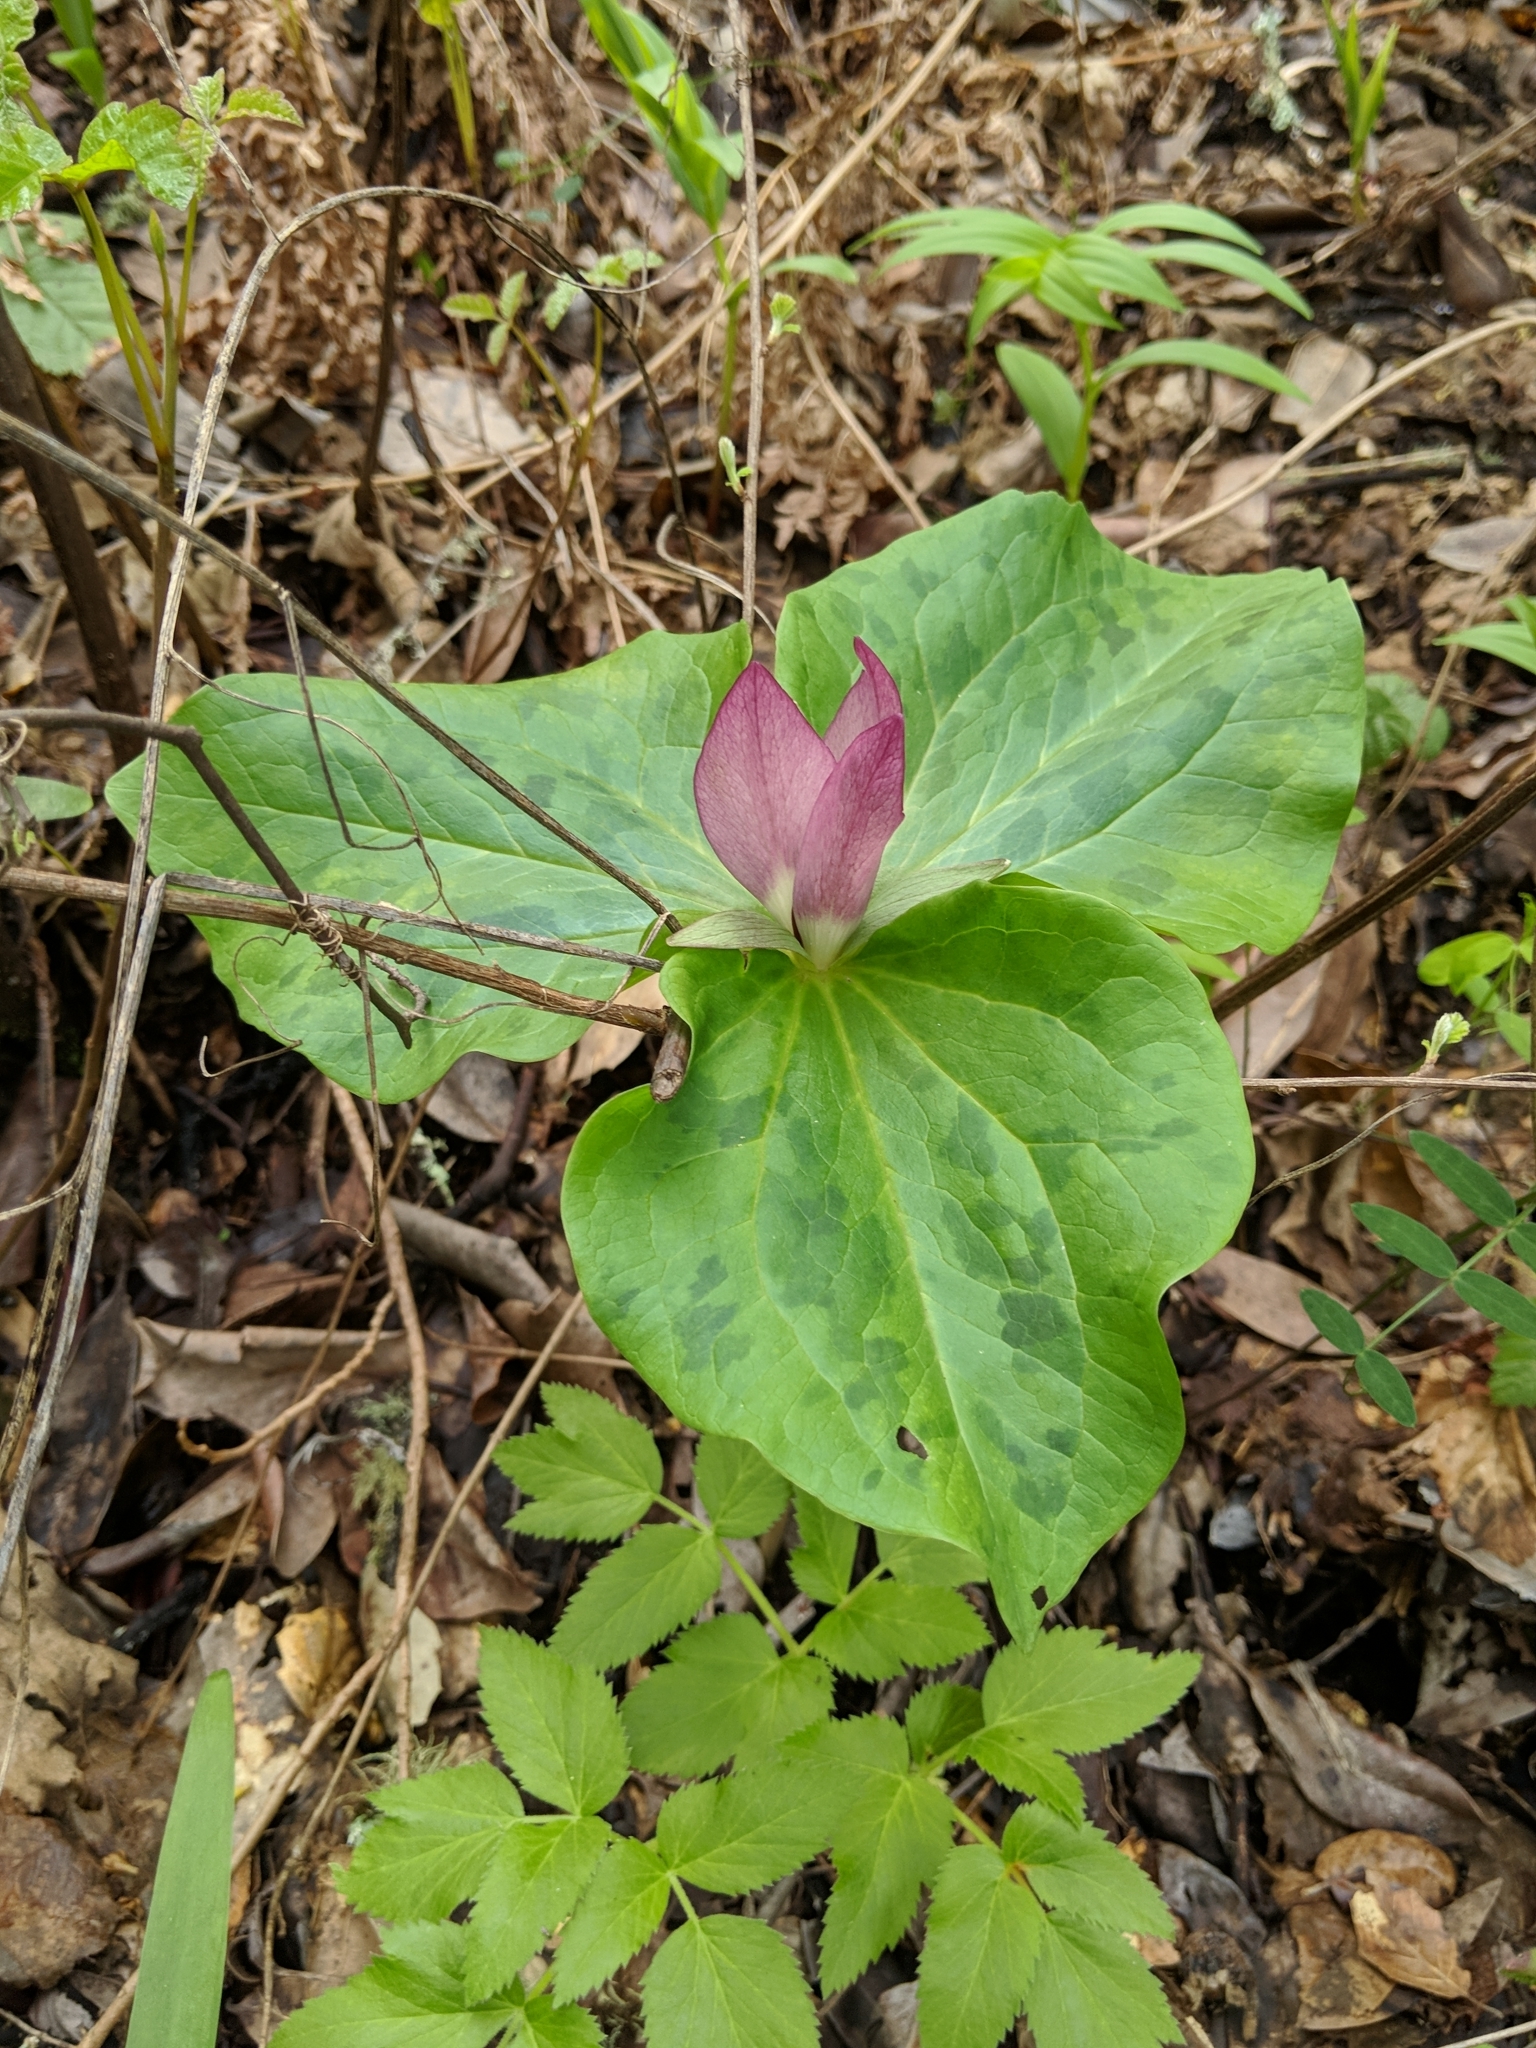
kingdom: Plantae
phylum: Tracheophyta
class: Liliopsida
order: Liliales
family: Melanthiaceae
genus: Trillium
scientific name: Trillium chloropetalum
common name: Giant trillium
